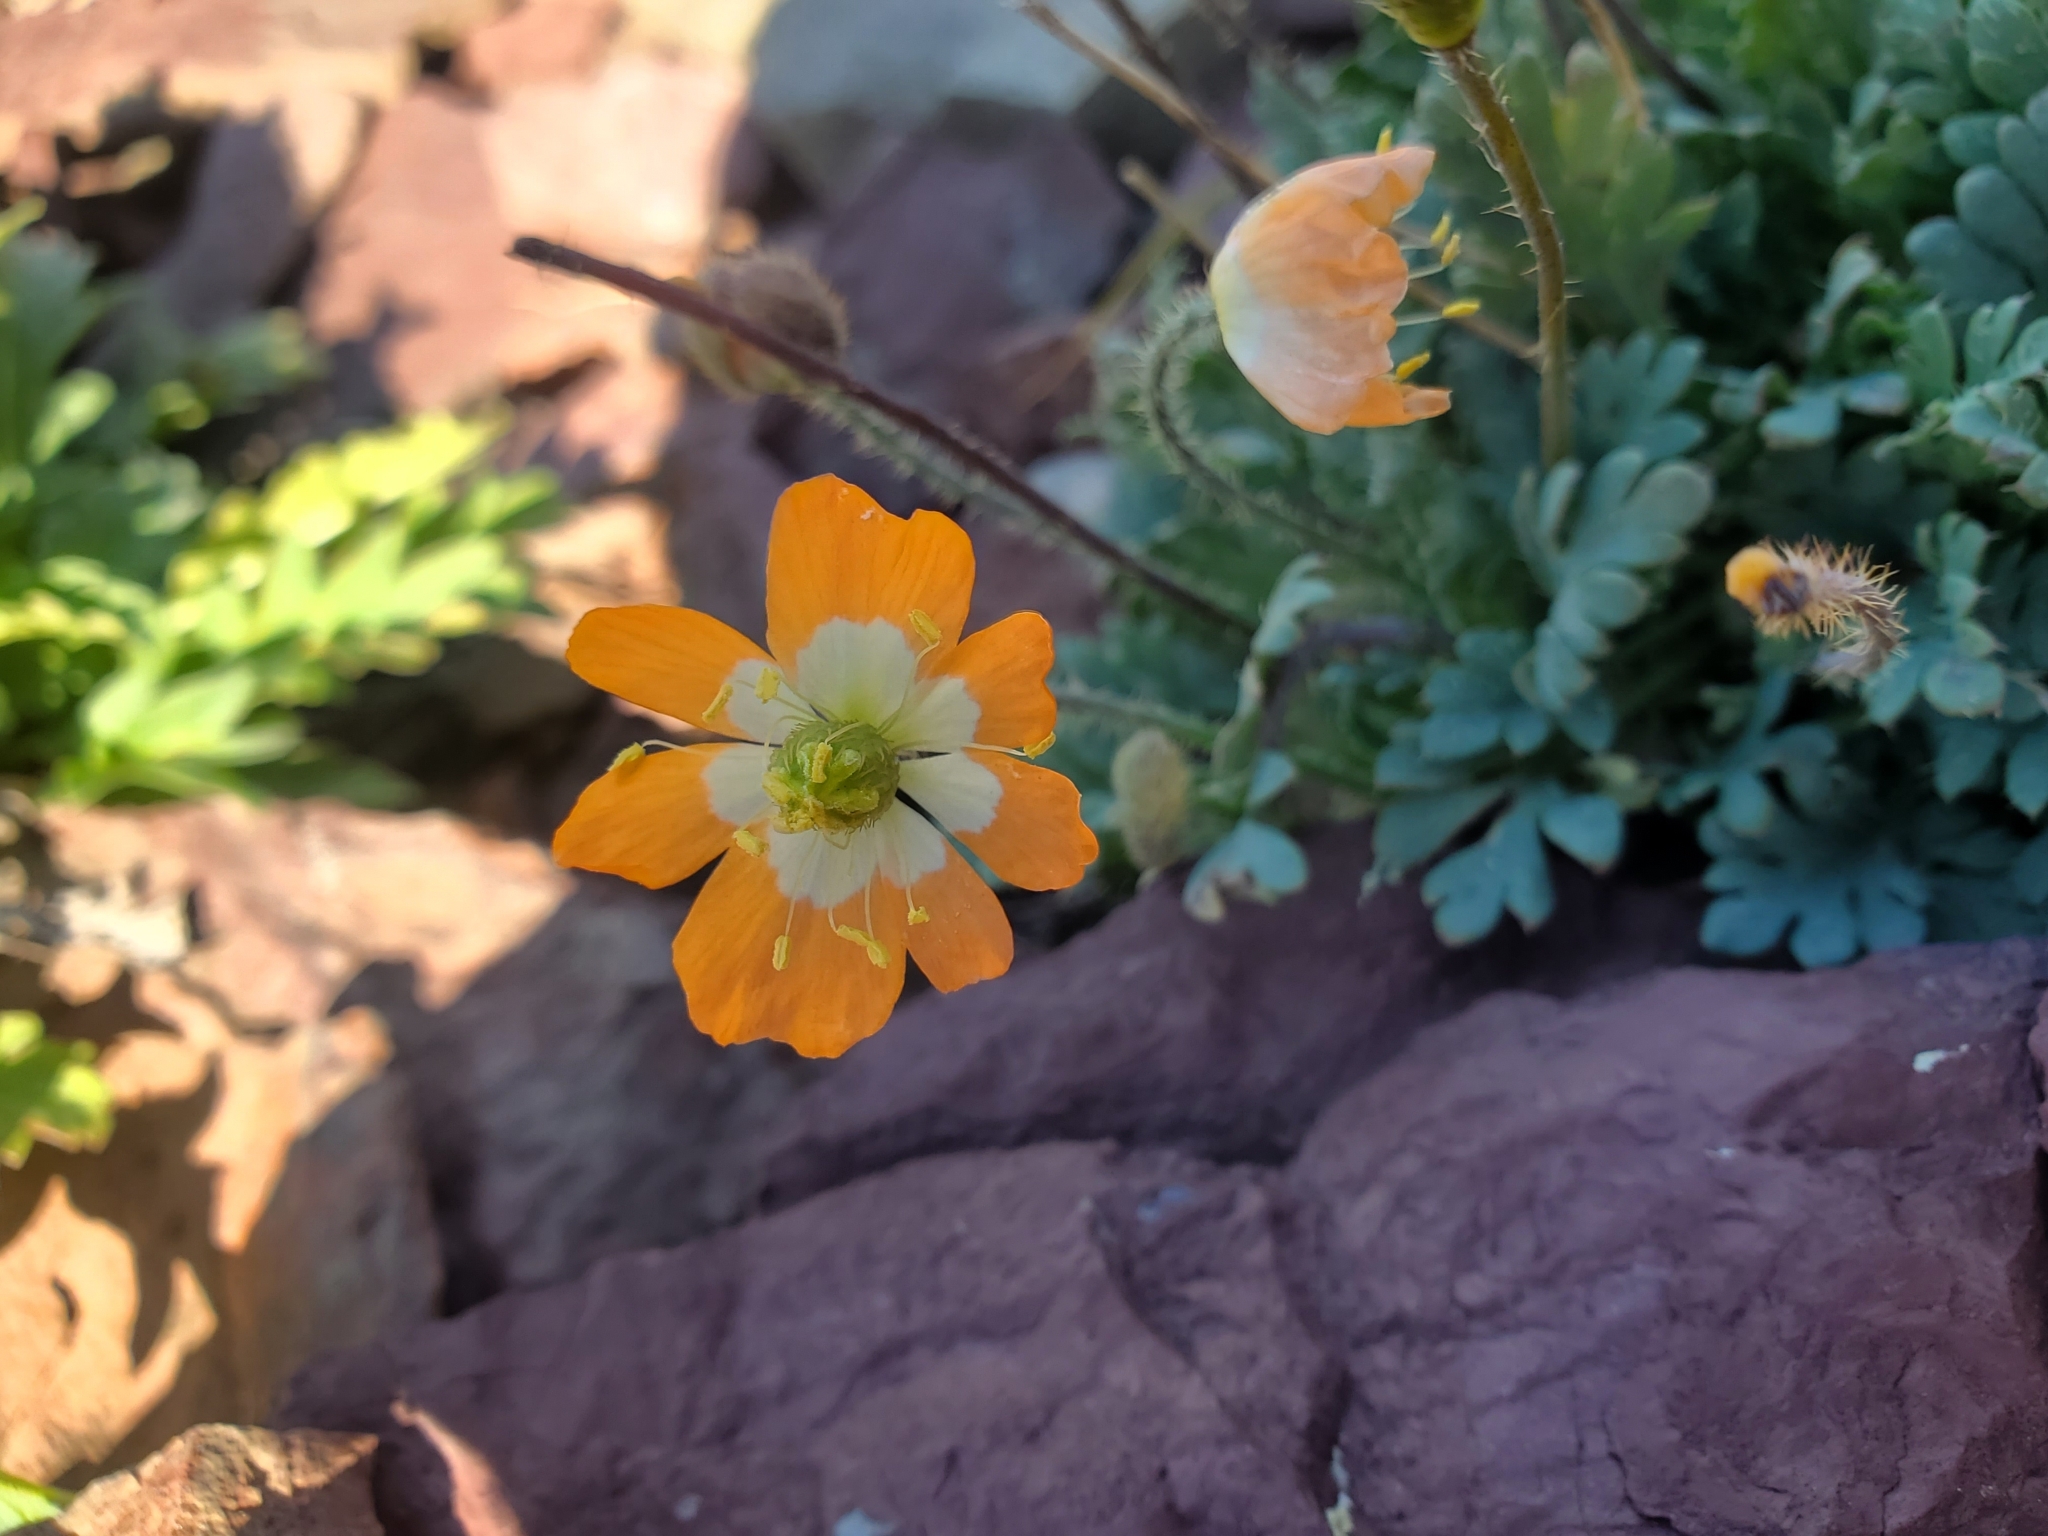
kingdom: Plantae
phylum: Tracheophyta
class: Magnoliopsida
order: Ranunculales
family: Papaveraceae
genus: Papaver
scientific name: Papaver pygmaeum
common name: Alpine glacier poppy
